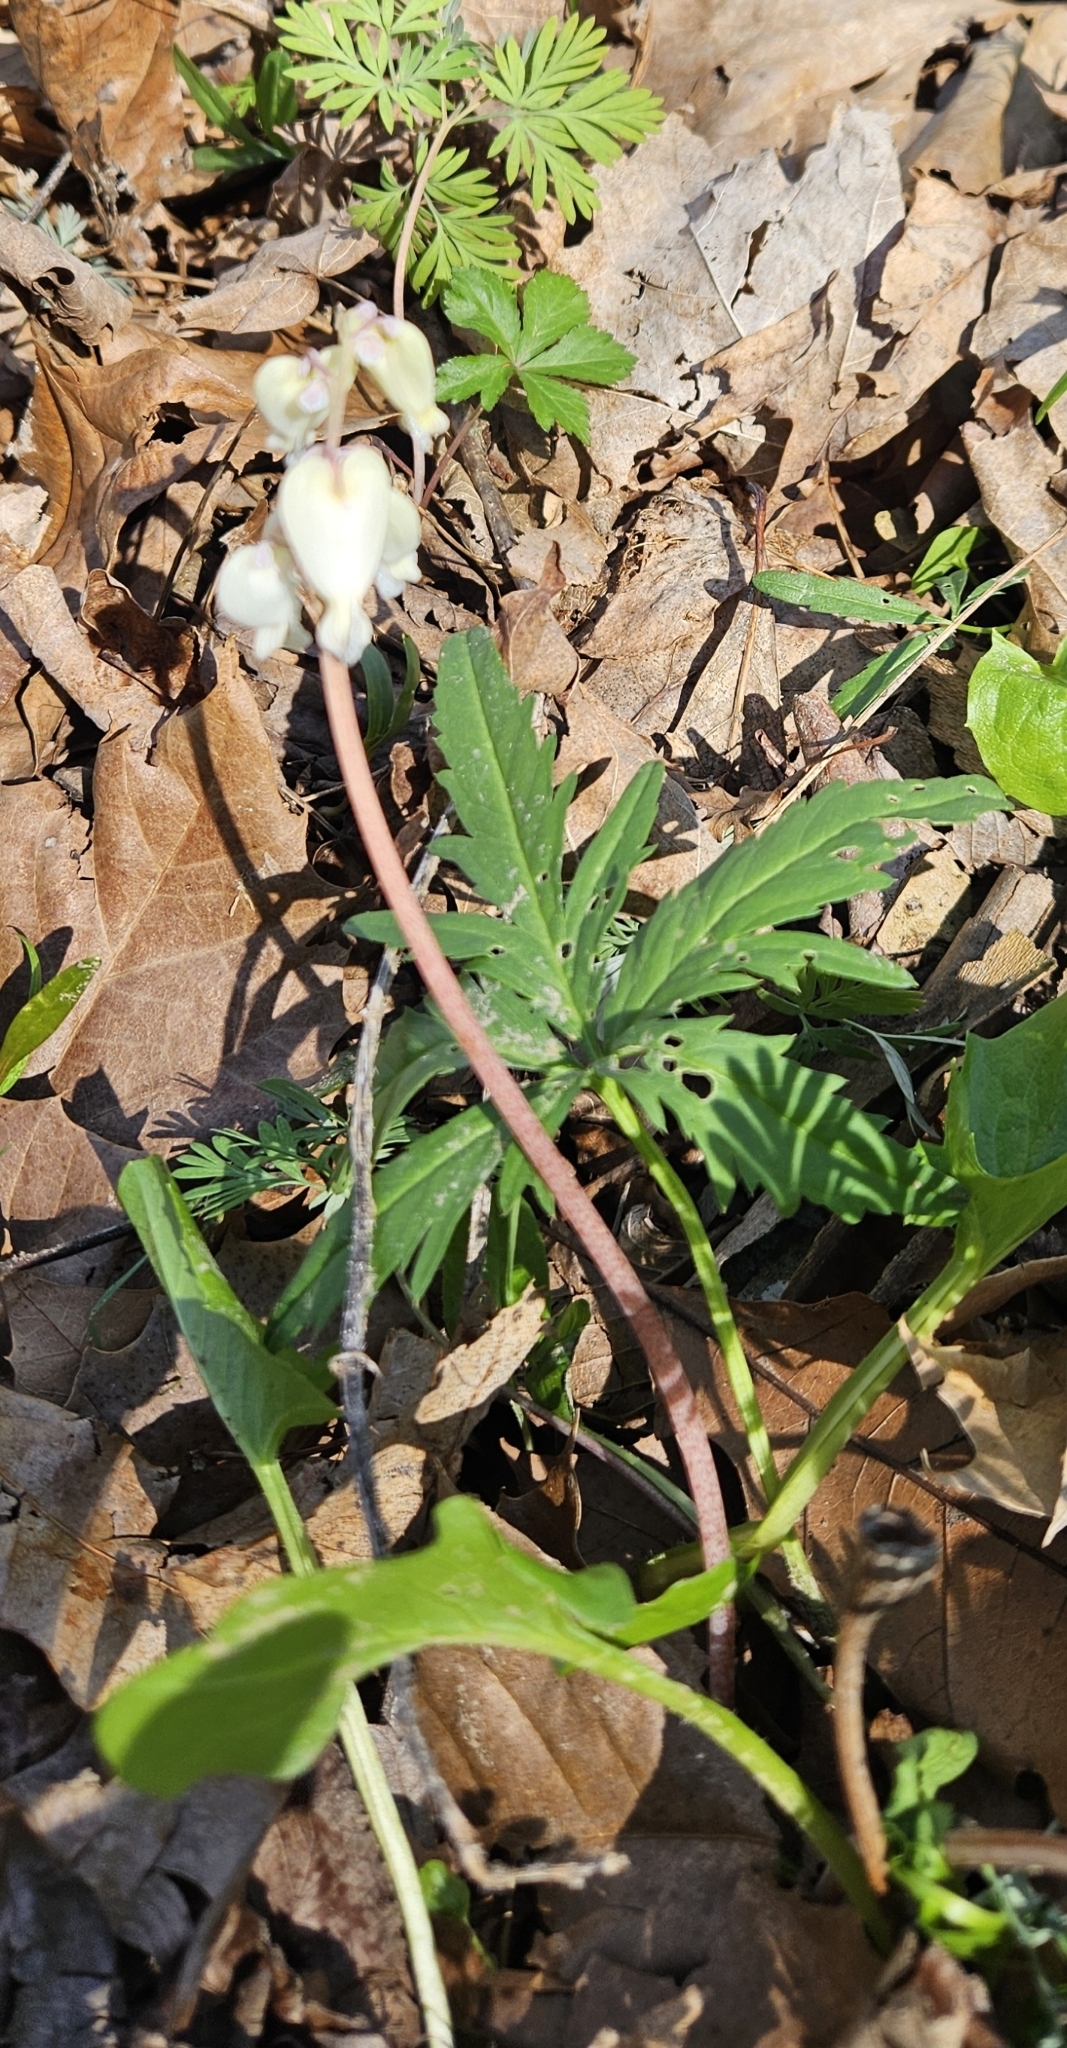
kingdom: Plantae
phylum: Tracheophyta
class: Magnoliopsida
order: Ranunculales
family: Papaveraceae
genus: Dicentra
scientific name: Dicentra canadensis
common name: Squirrel-corn
